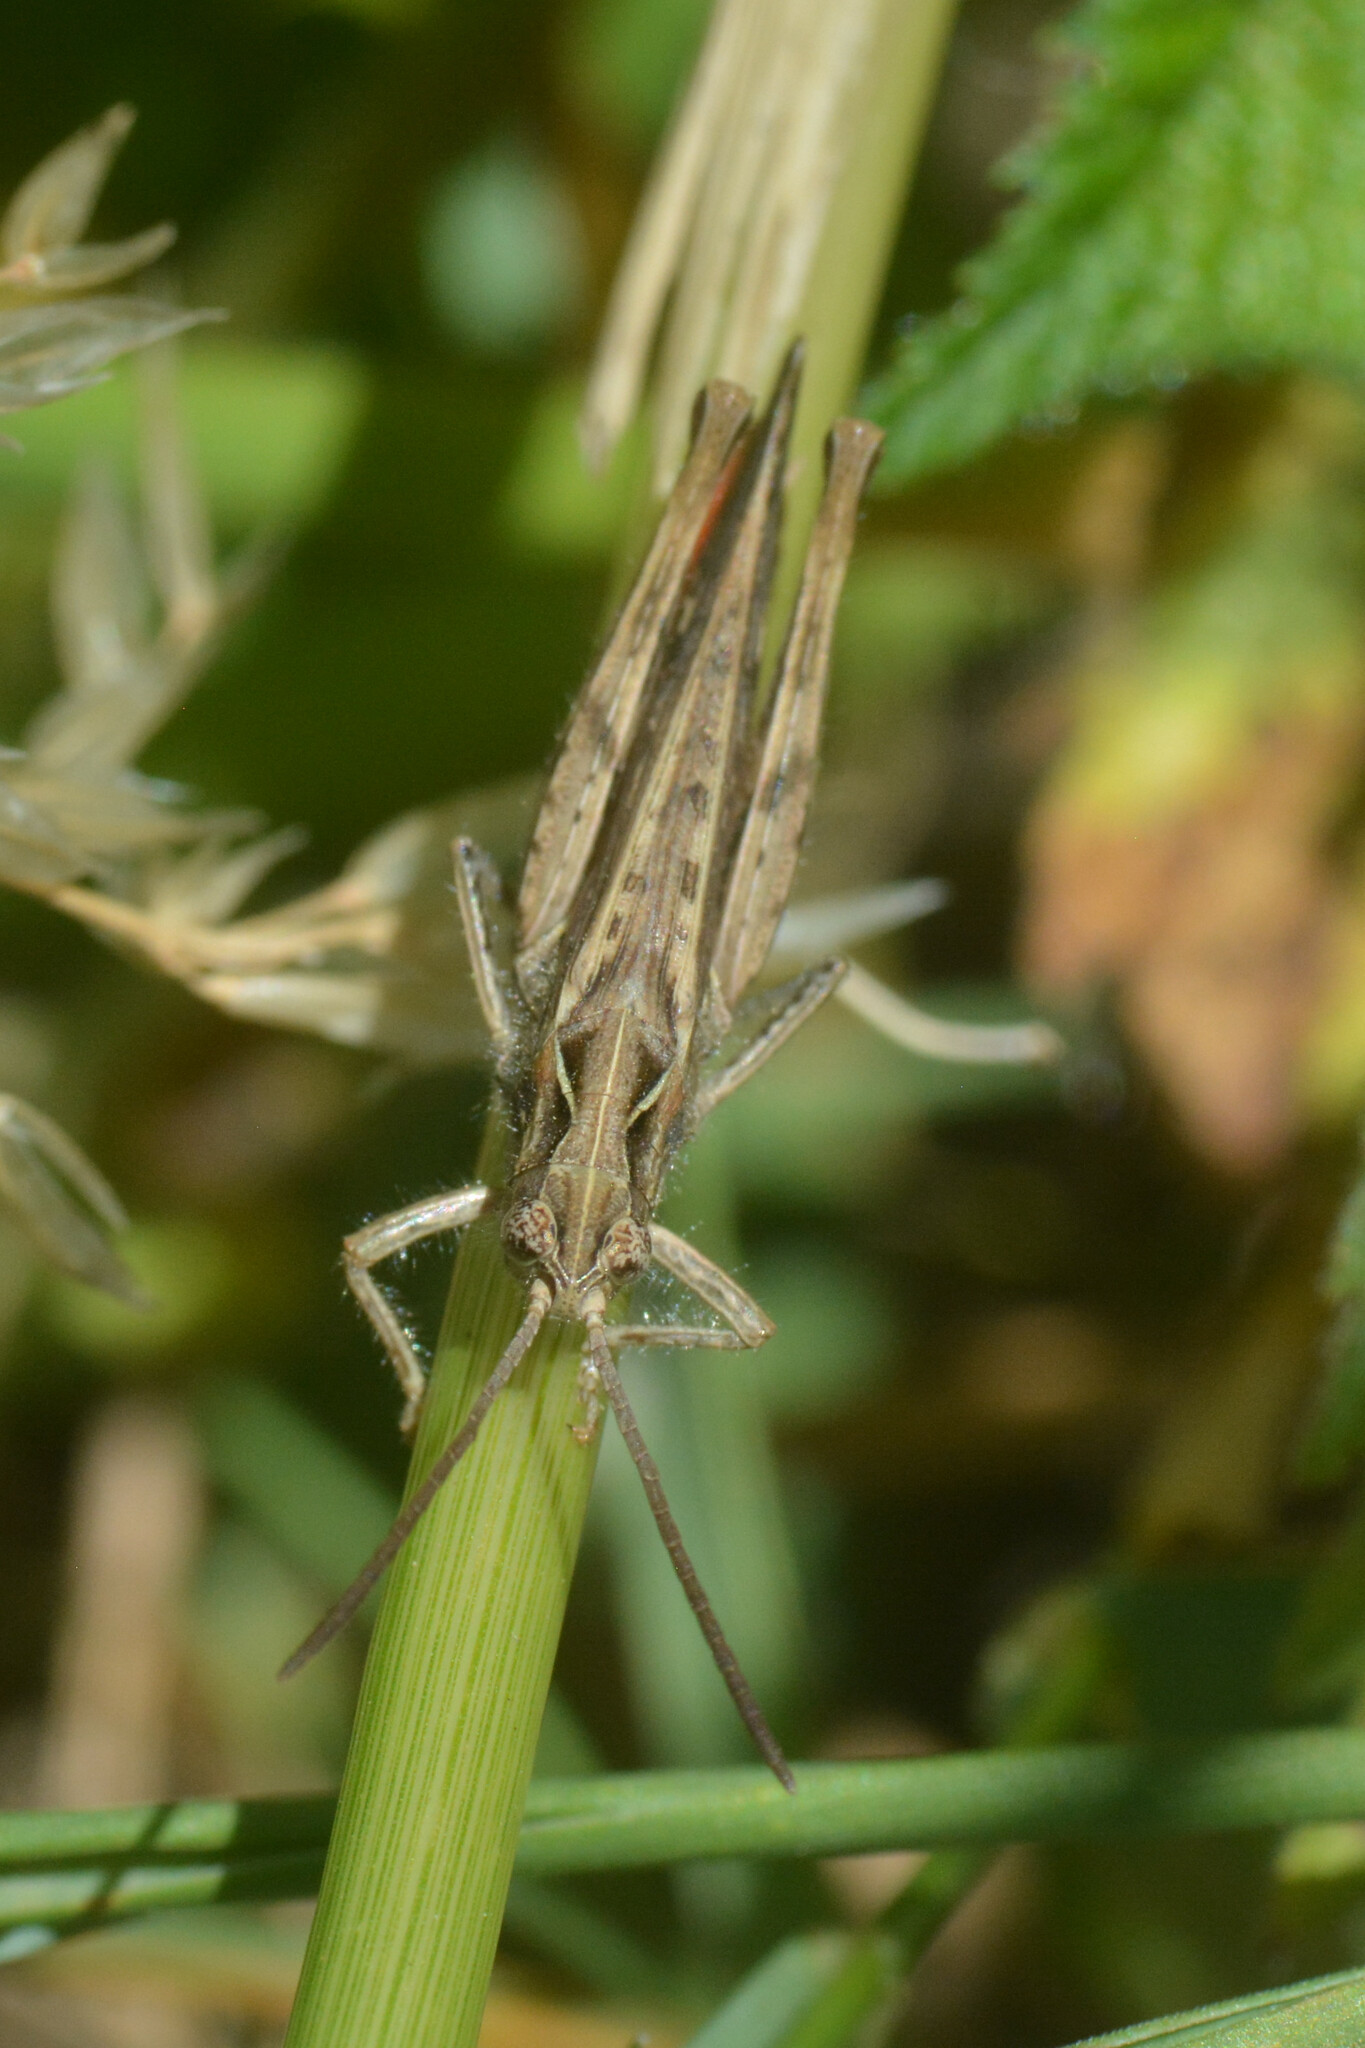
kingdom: Animalia
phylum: Arthropoda
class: Insecta
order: Orthoptera
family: Acrididae
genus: Chorthippus
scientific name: Chorthippus brunneus
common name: Field grasshopper
